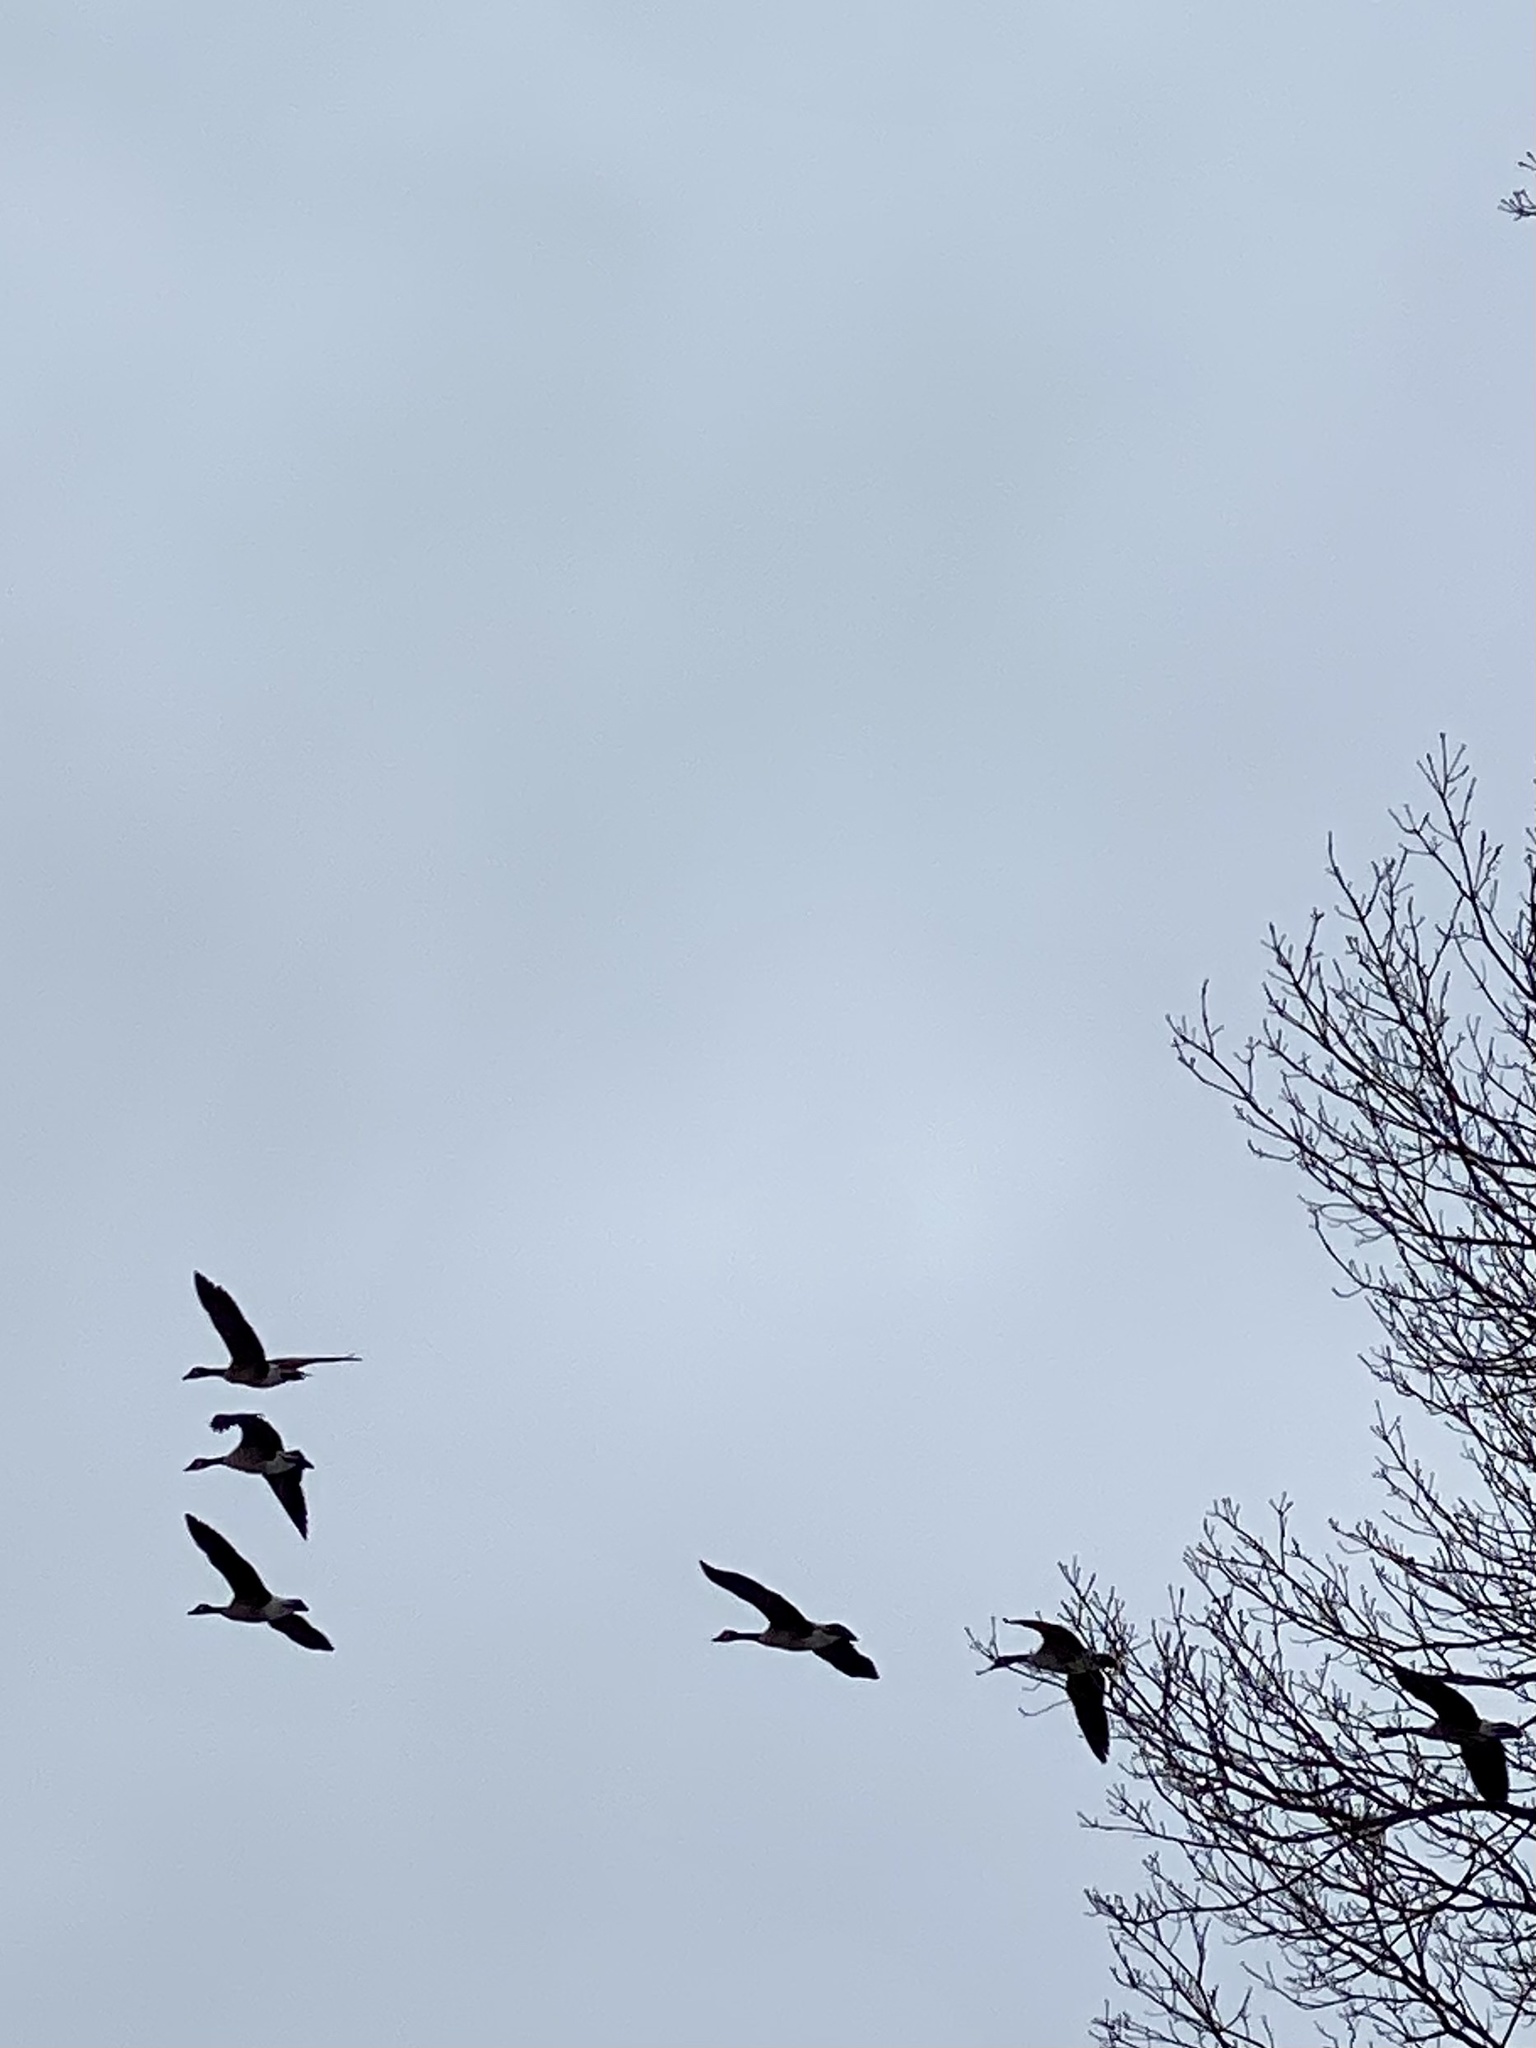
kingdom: Animalia
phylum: Chordata
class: Aves
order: Anseriformes
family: Anatidae
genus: Branta
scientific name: Branta canadensis
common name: Canada goose
